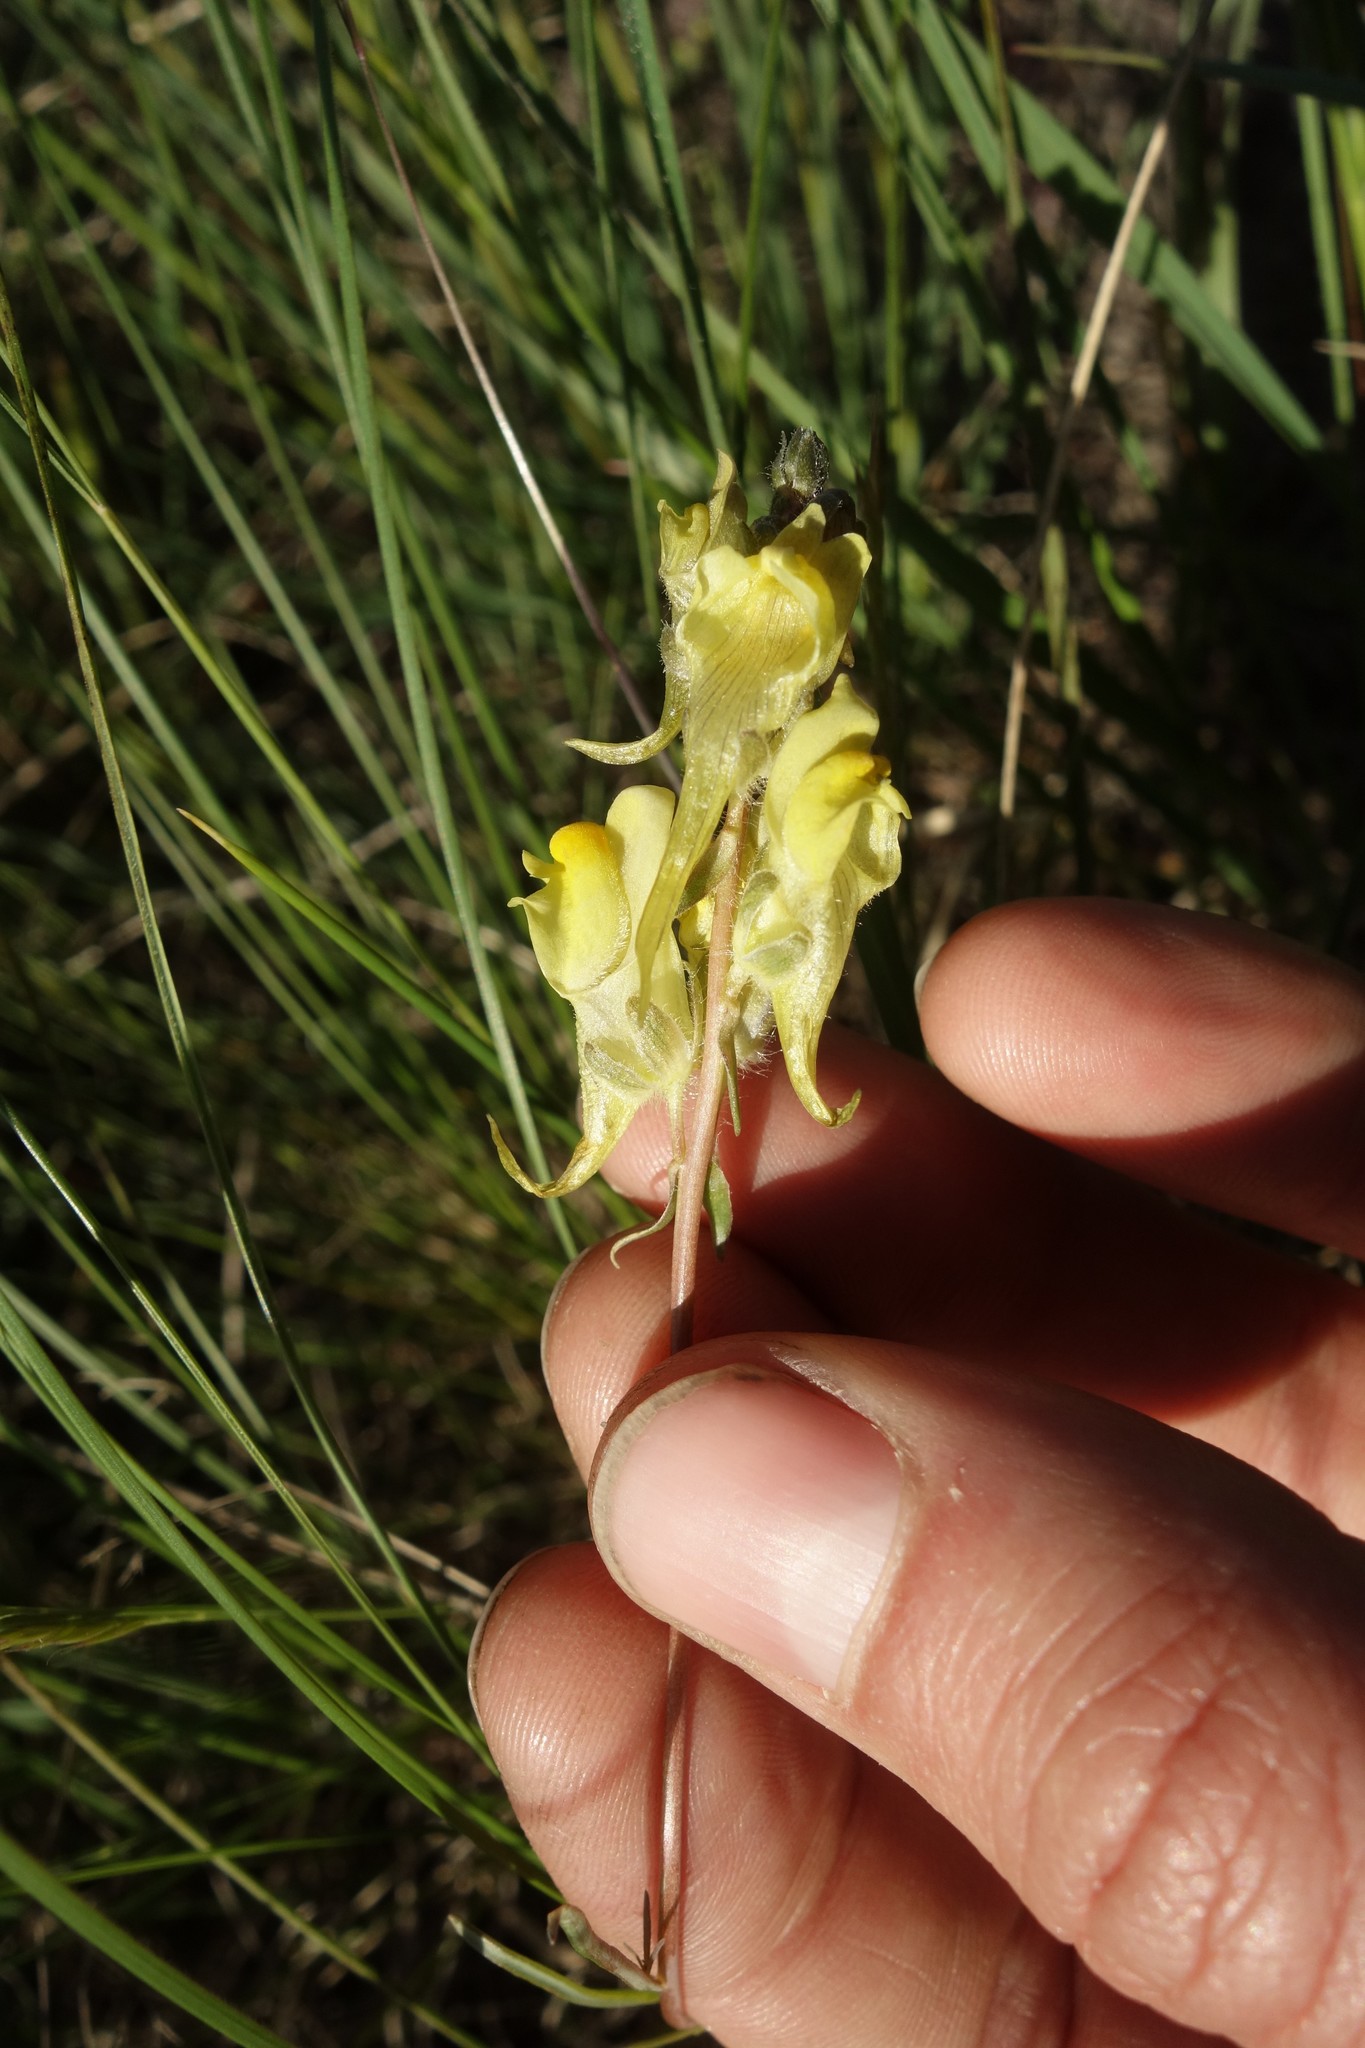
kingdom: Plantae
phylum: Tracheophyta
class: Magnoliopsida
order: Lamiales
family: Plantaginaceae
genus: Linaria
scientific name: Linaria macroura
